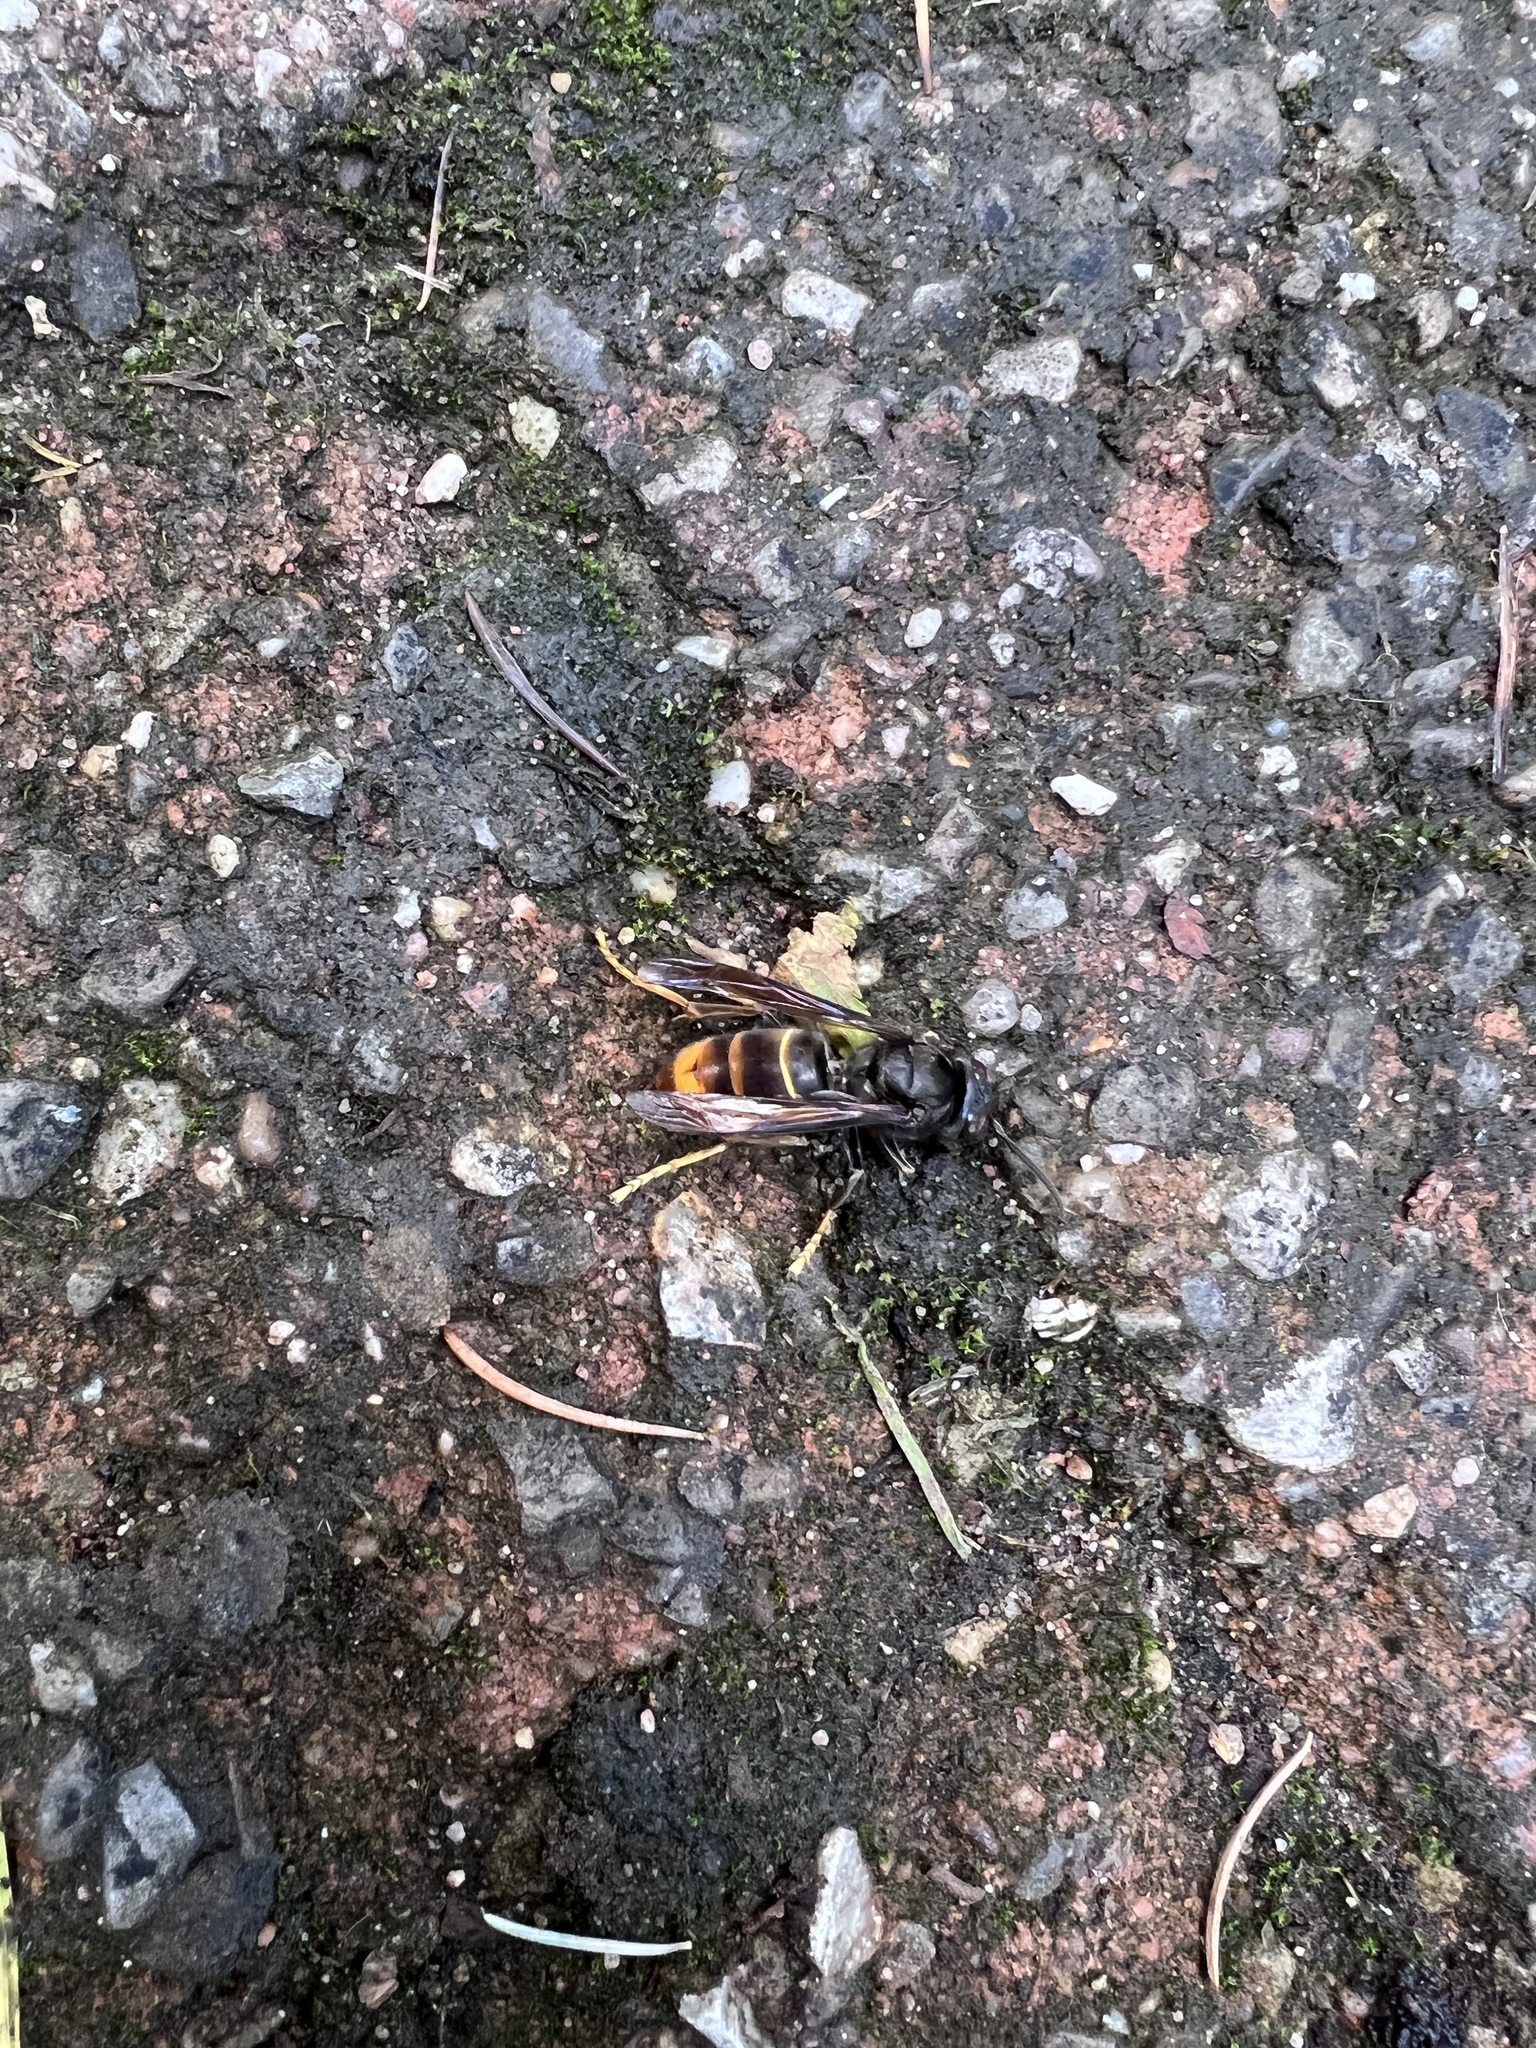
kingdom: Animalia
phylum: Arthropoda
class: Insecta
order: Hymenoptera
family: Vespidae
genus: Vespa
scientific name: Vespa velutina
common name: Asian hornet
